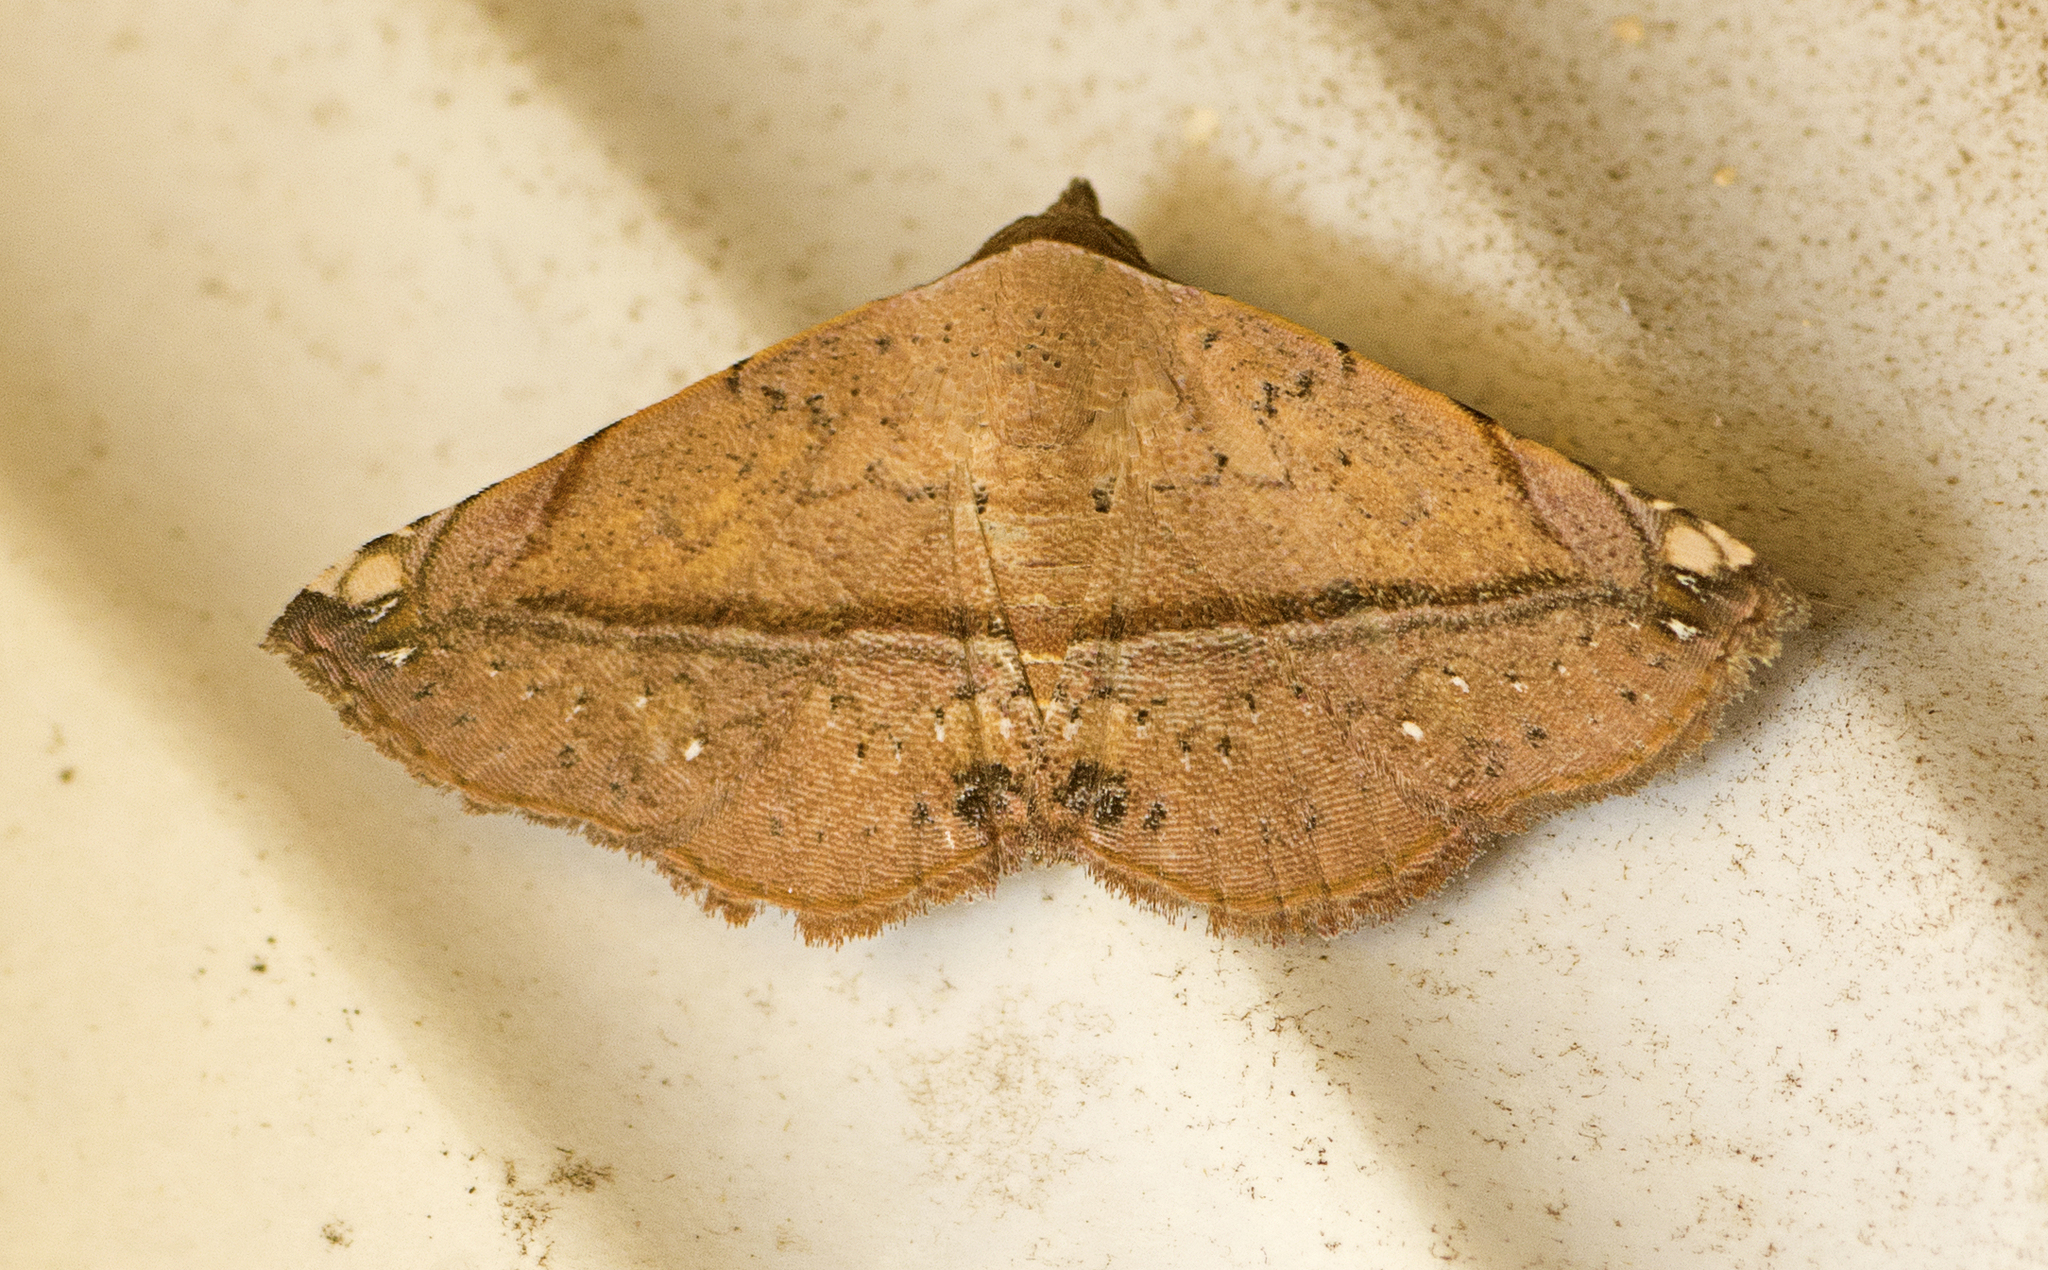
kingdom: Animalia
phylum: Arthropoda
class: Insecta
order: Lepidoptera
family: Noctuidae
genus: Eublemma
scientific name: Eublemma abrupta
